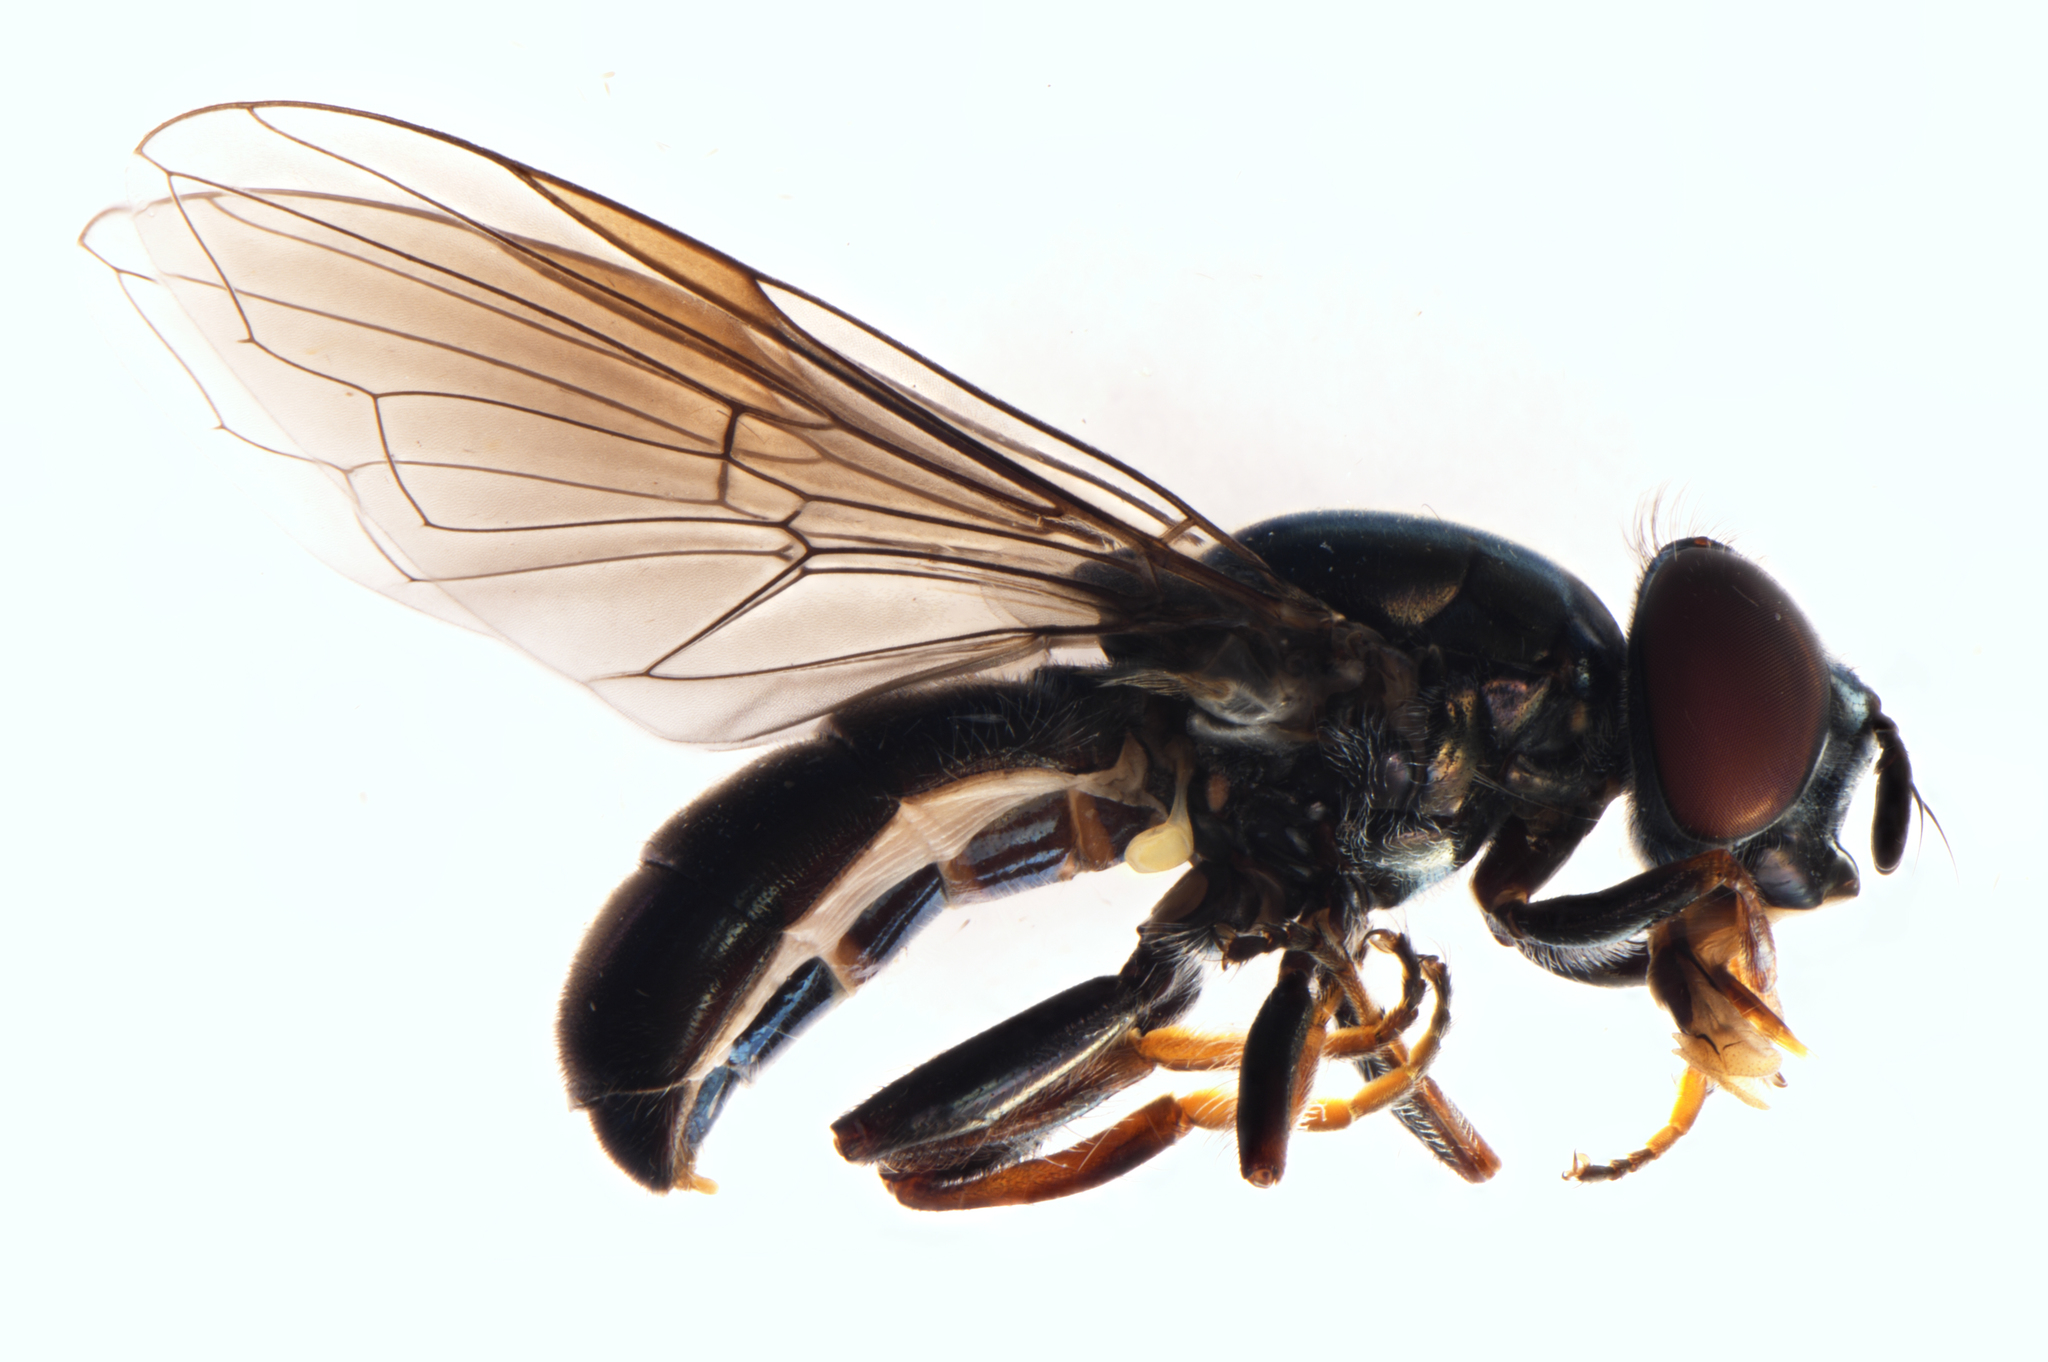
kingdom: Animalia
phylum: Arthropoda
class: Insecta
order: Diptera
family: Syrphidae
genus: Psilota
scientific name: Psilota decessum
